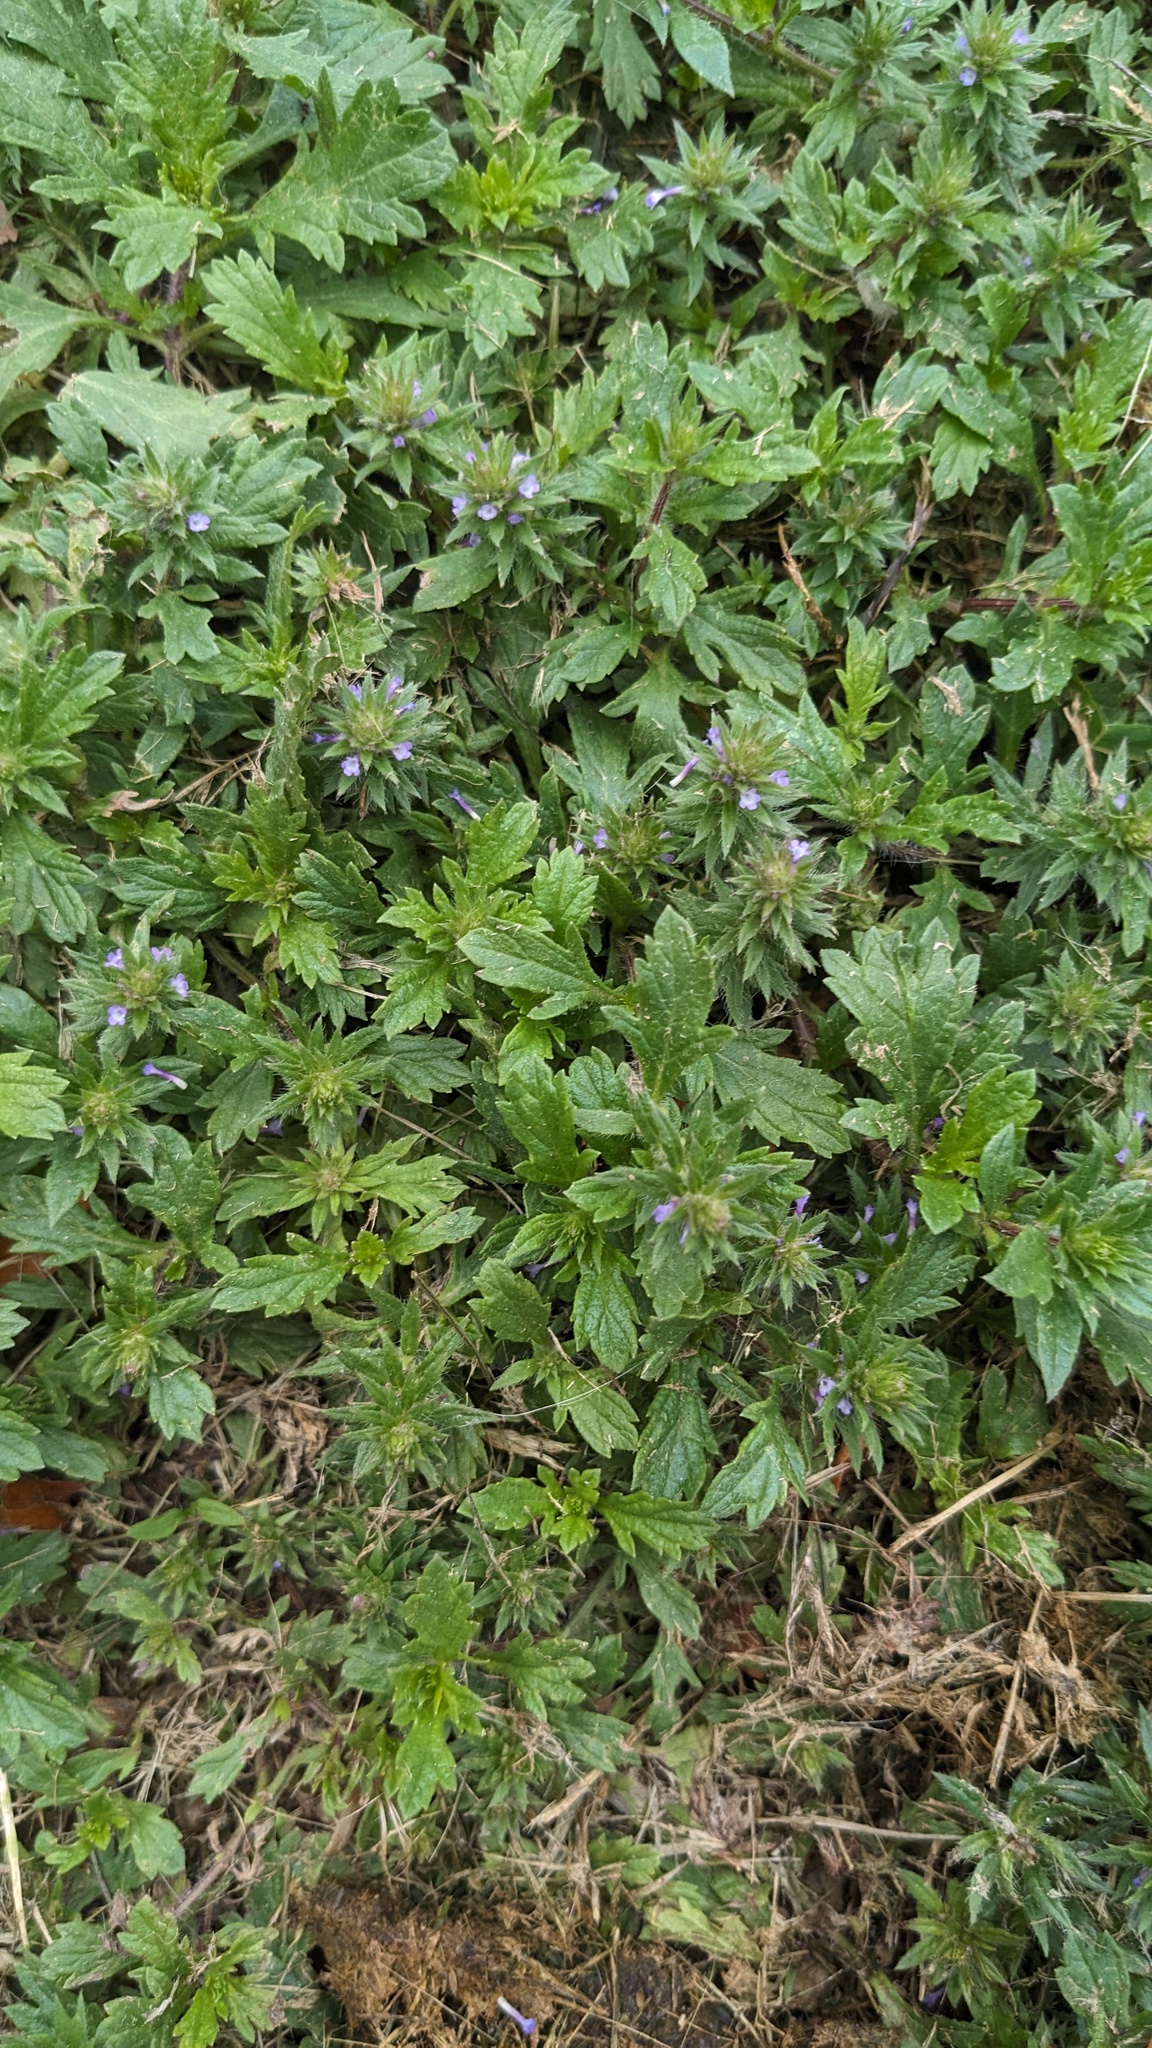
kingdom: Plantae
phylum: Tracheophyta
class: Magnoliopsida
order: Lamiales
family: Verbenaceae
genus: Verbena
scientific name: Verbena bracteata
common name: Bracted vervain
